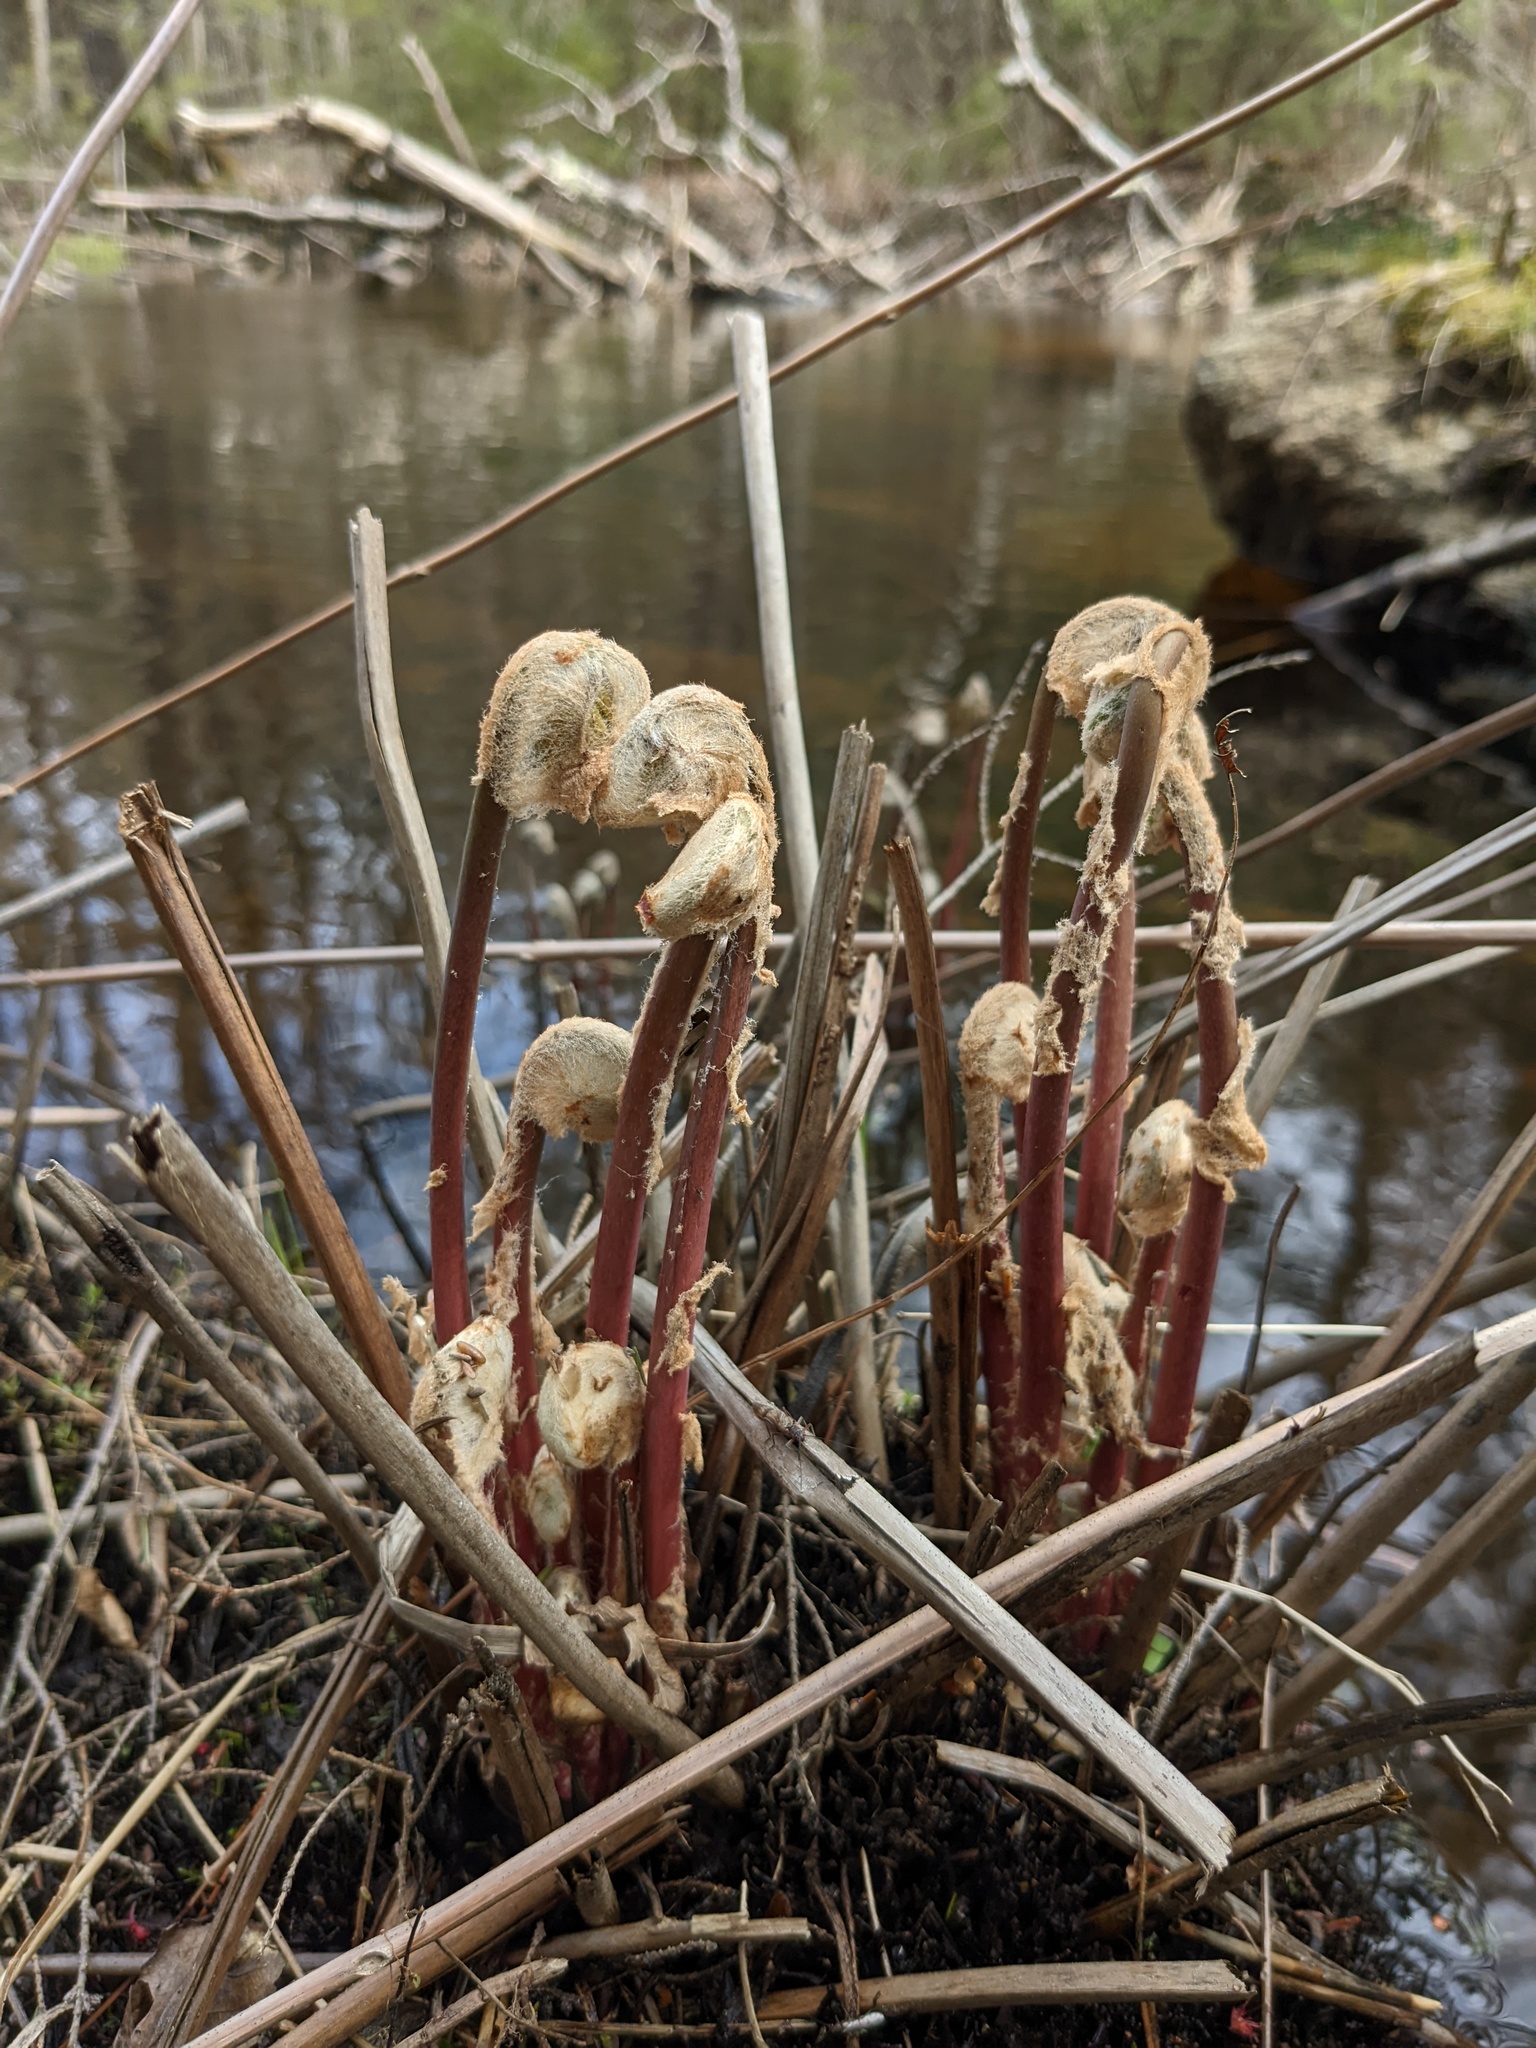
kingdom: Plantae
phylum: Tracheophyta
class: Polypodiopsida
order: Osmundales
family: Osmundaceae
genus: Osmunda
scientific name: Osmunda spectabilis
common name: American royal fern
